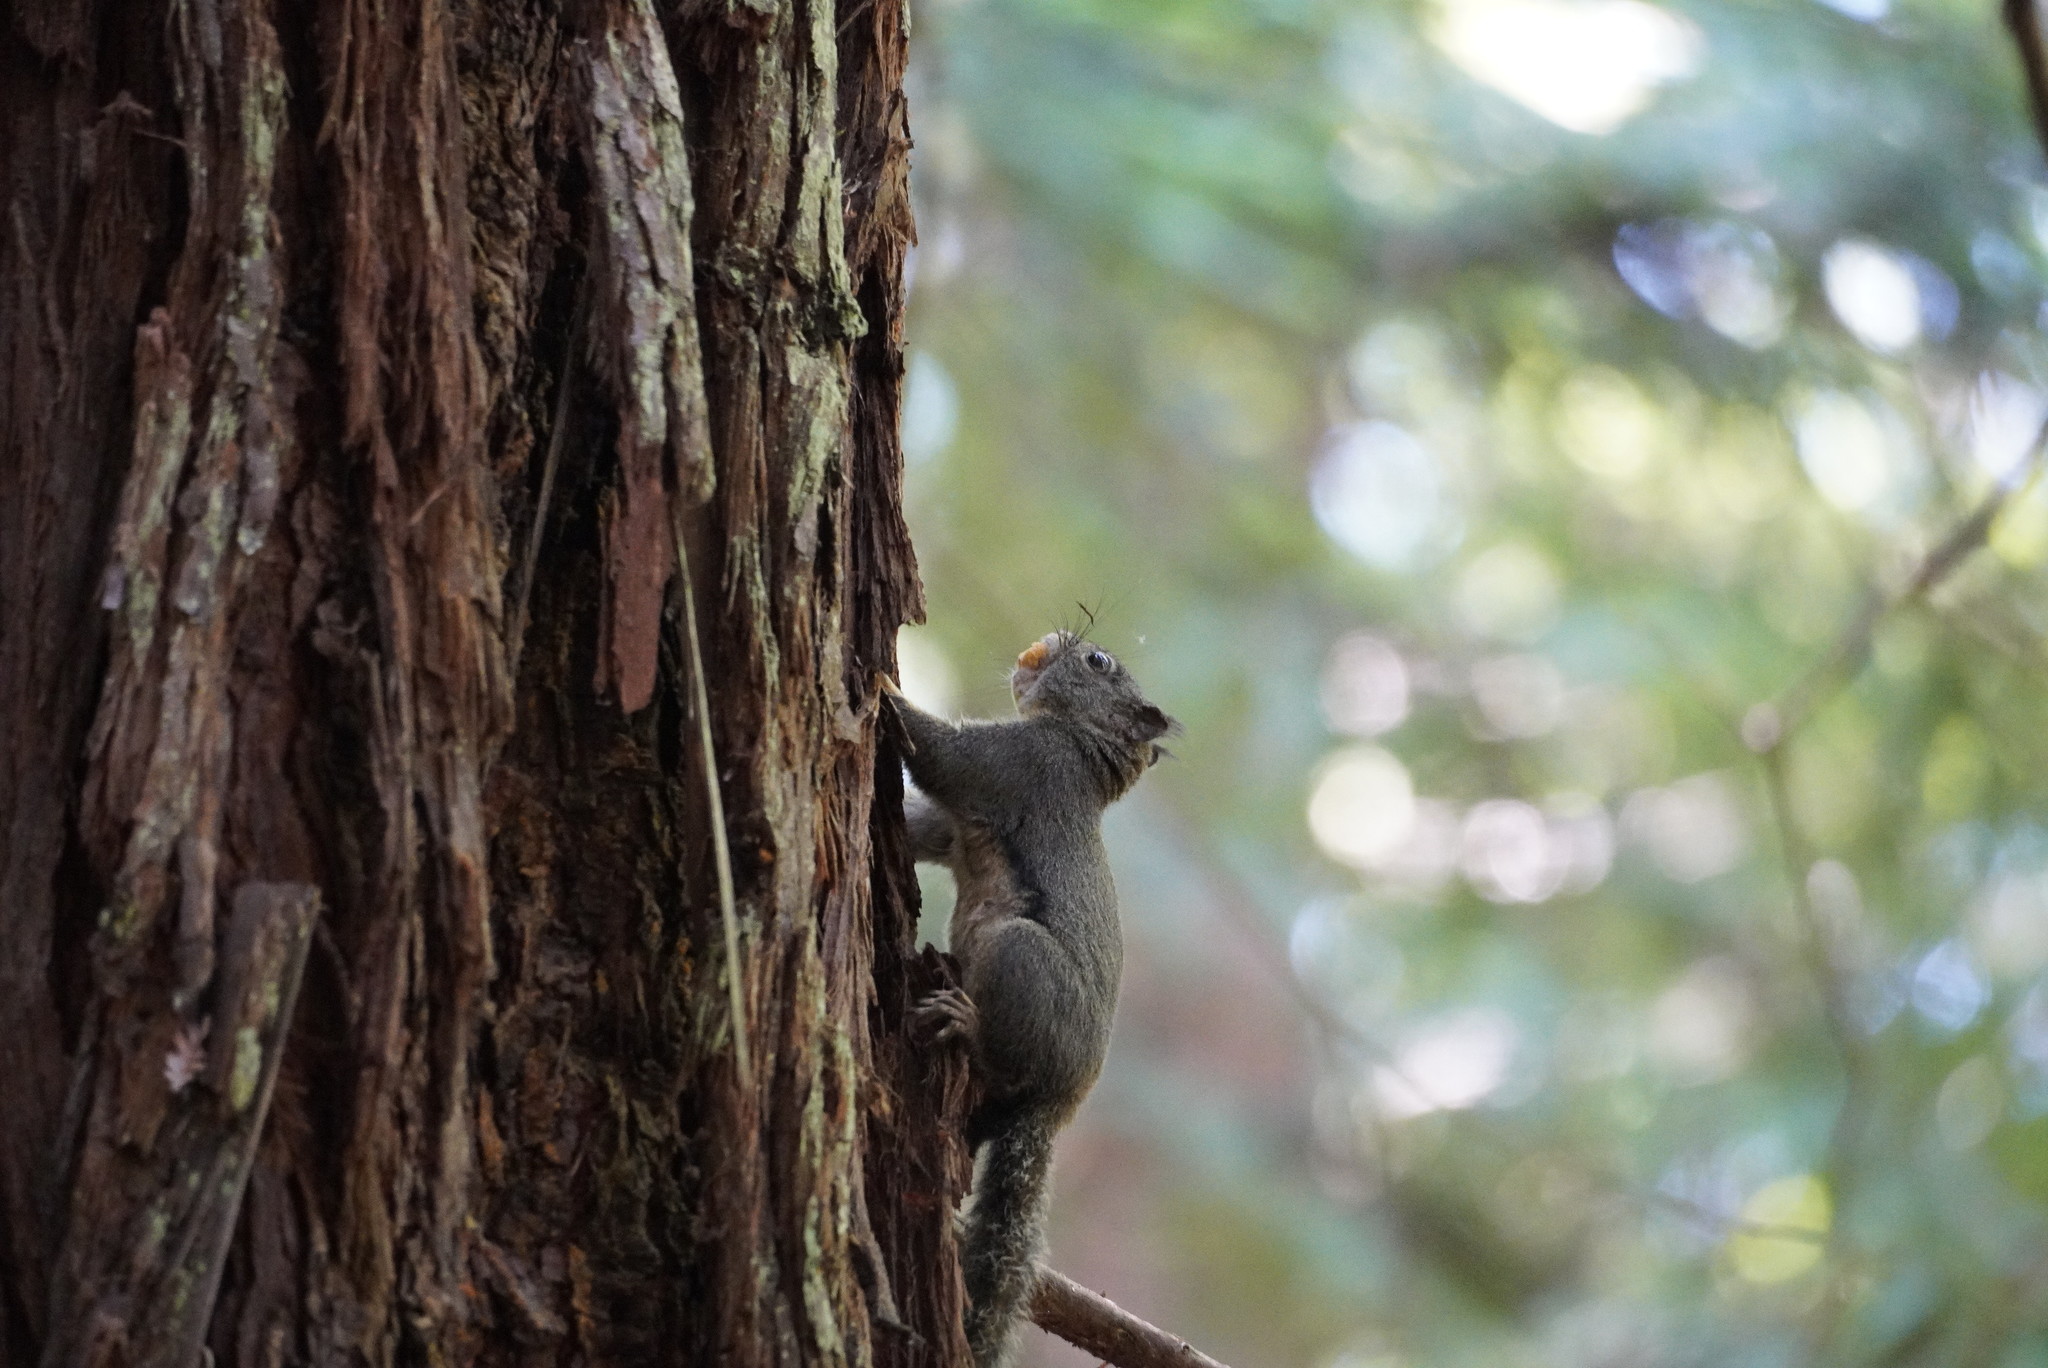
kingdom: Animalia
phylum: Chordata
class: Mammalia
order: Rodentia
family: Sciuridae
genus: Tamiasciurus
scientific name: Tamiasciurus douglasii
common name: Douglas's squirrel
